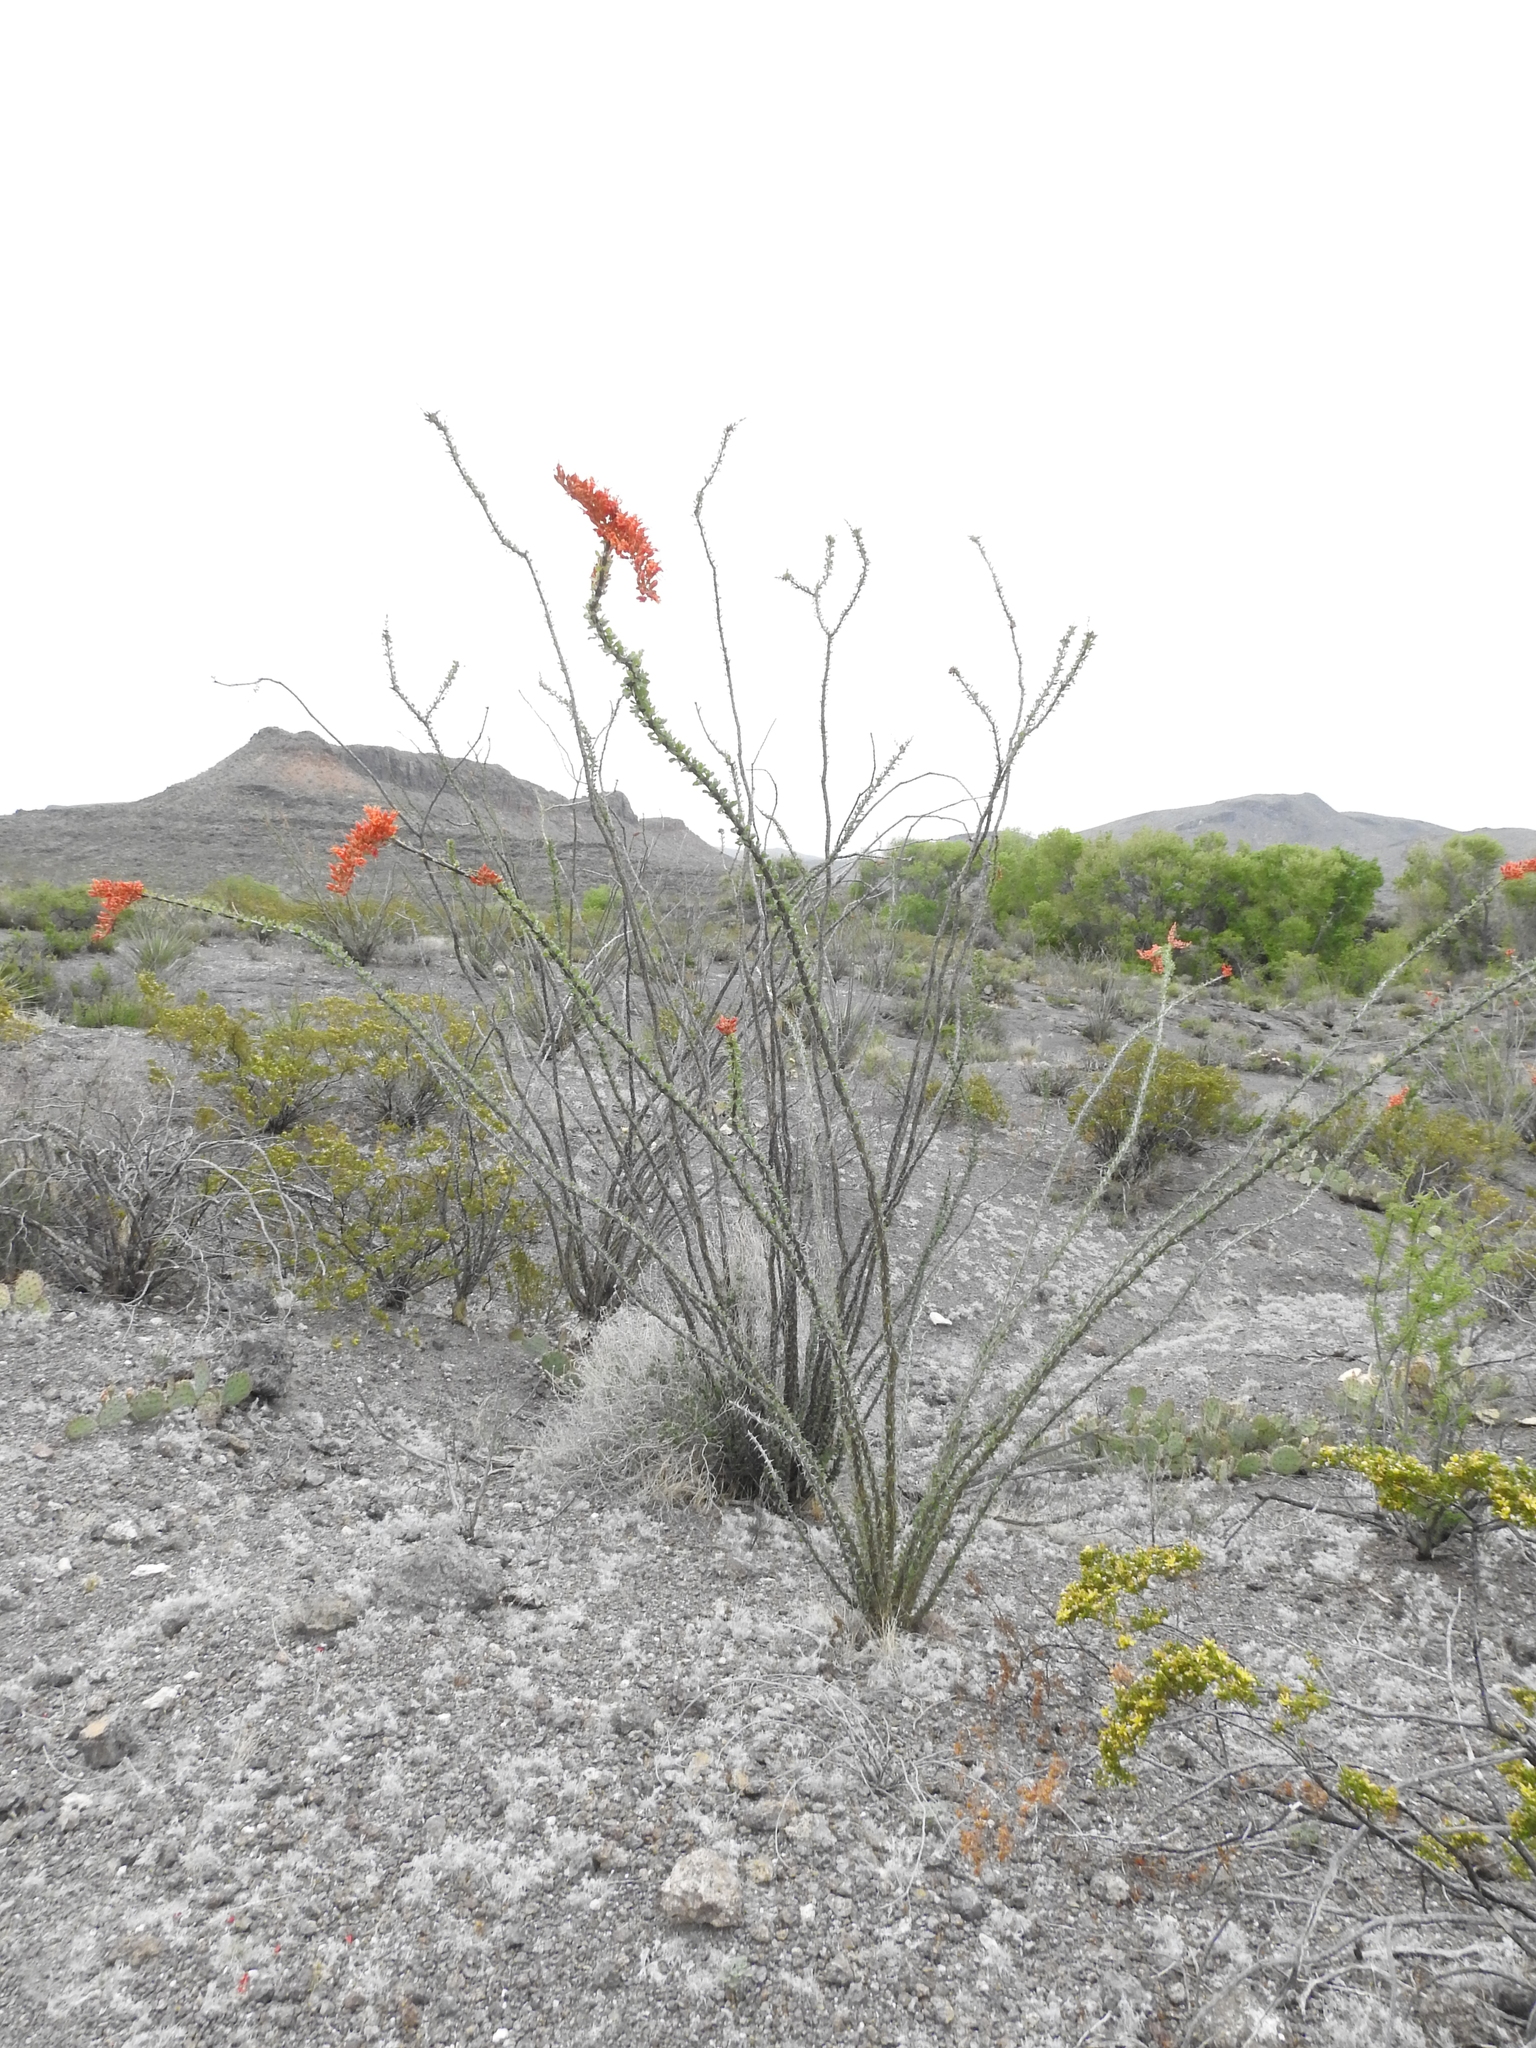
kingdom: Plantae
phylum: Tracheophyta
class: Magnoliopsida
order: Ericales
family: Fouquieriaceae
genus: Fouquieria
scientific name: Fouquieria splendens
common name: Vine-cactus
